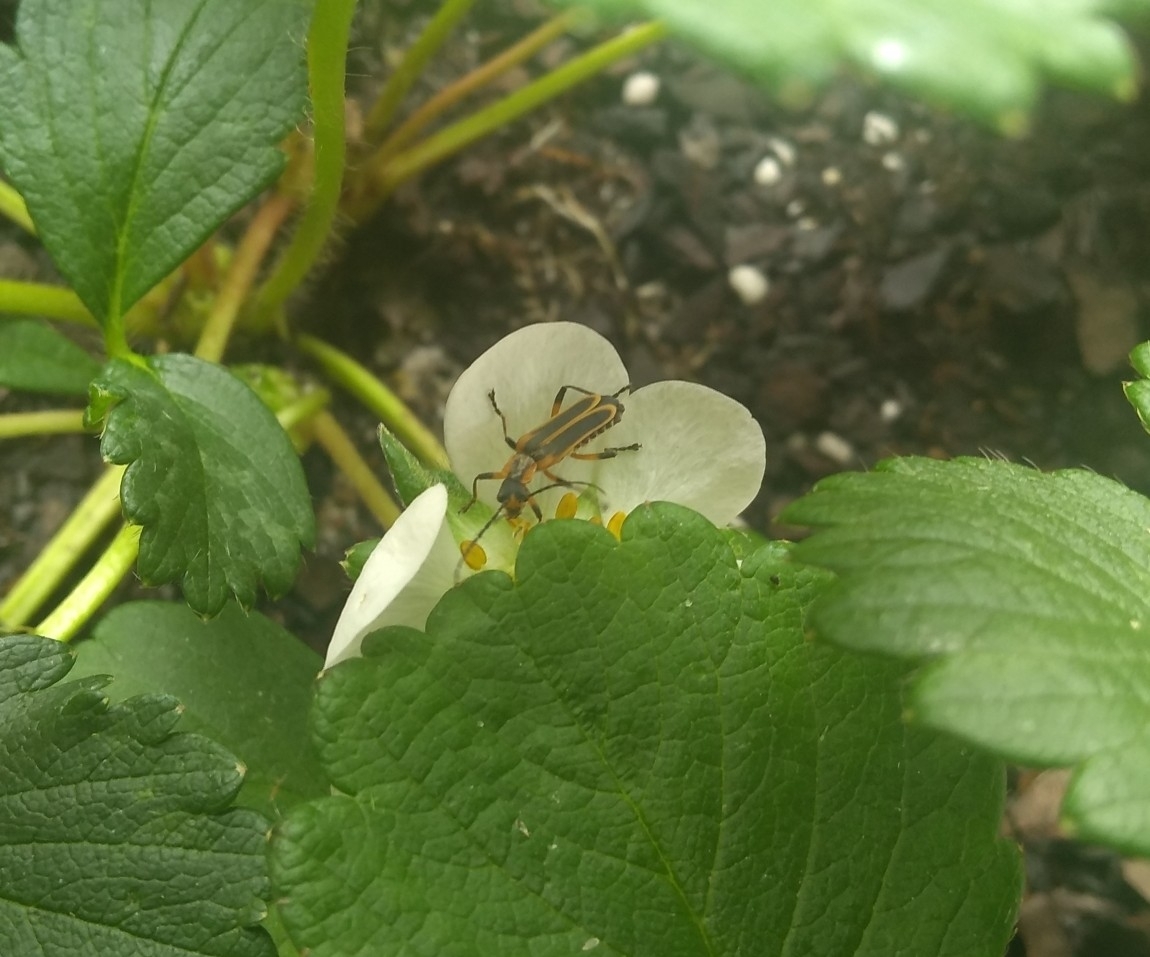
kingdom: Animalia
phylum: Arthropoda
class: Insecta
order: Coleoptera
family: Cantharidae
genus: Chauliognathus
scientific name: Chauliognathus marginatus
